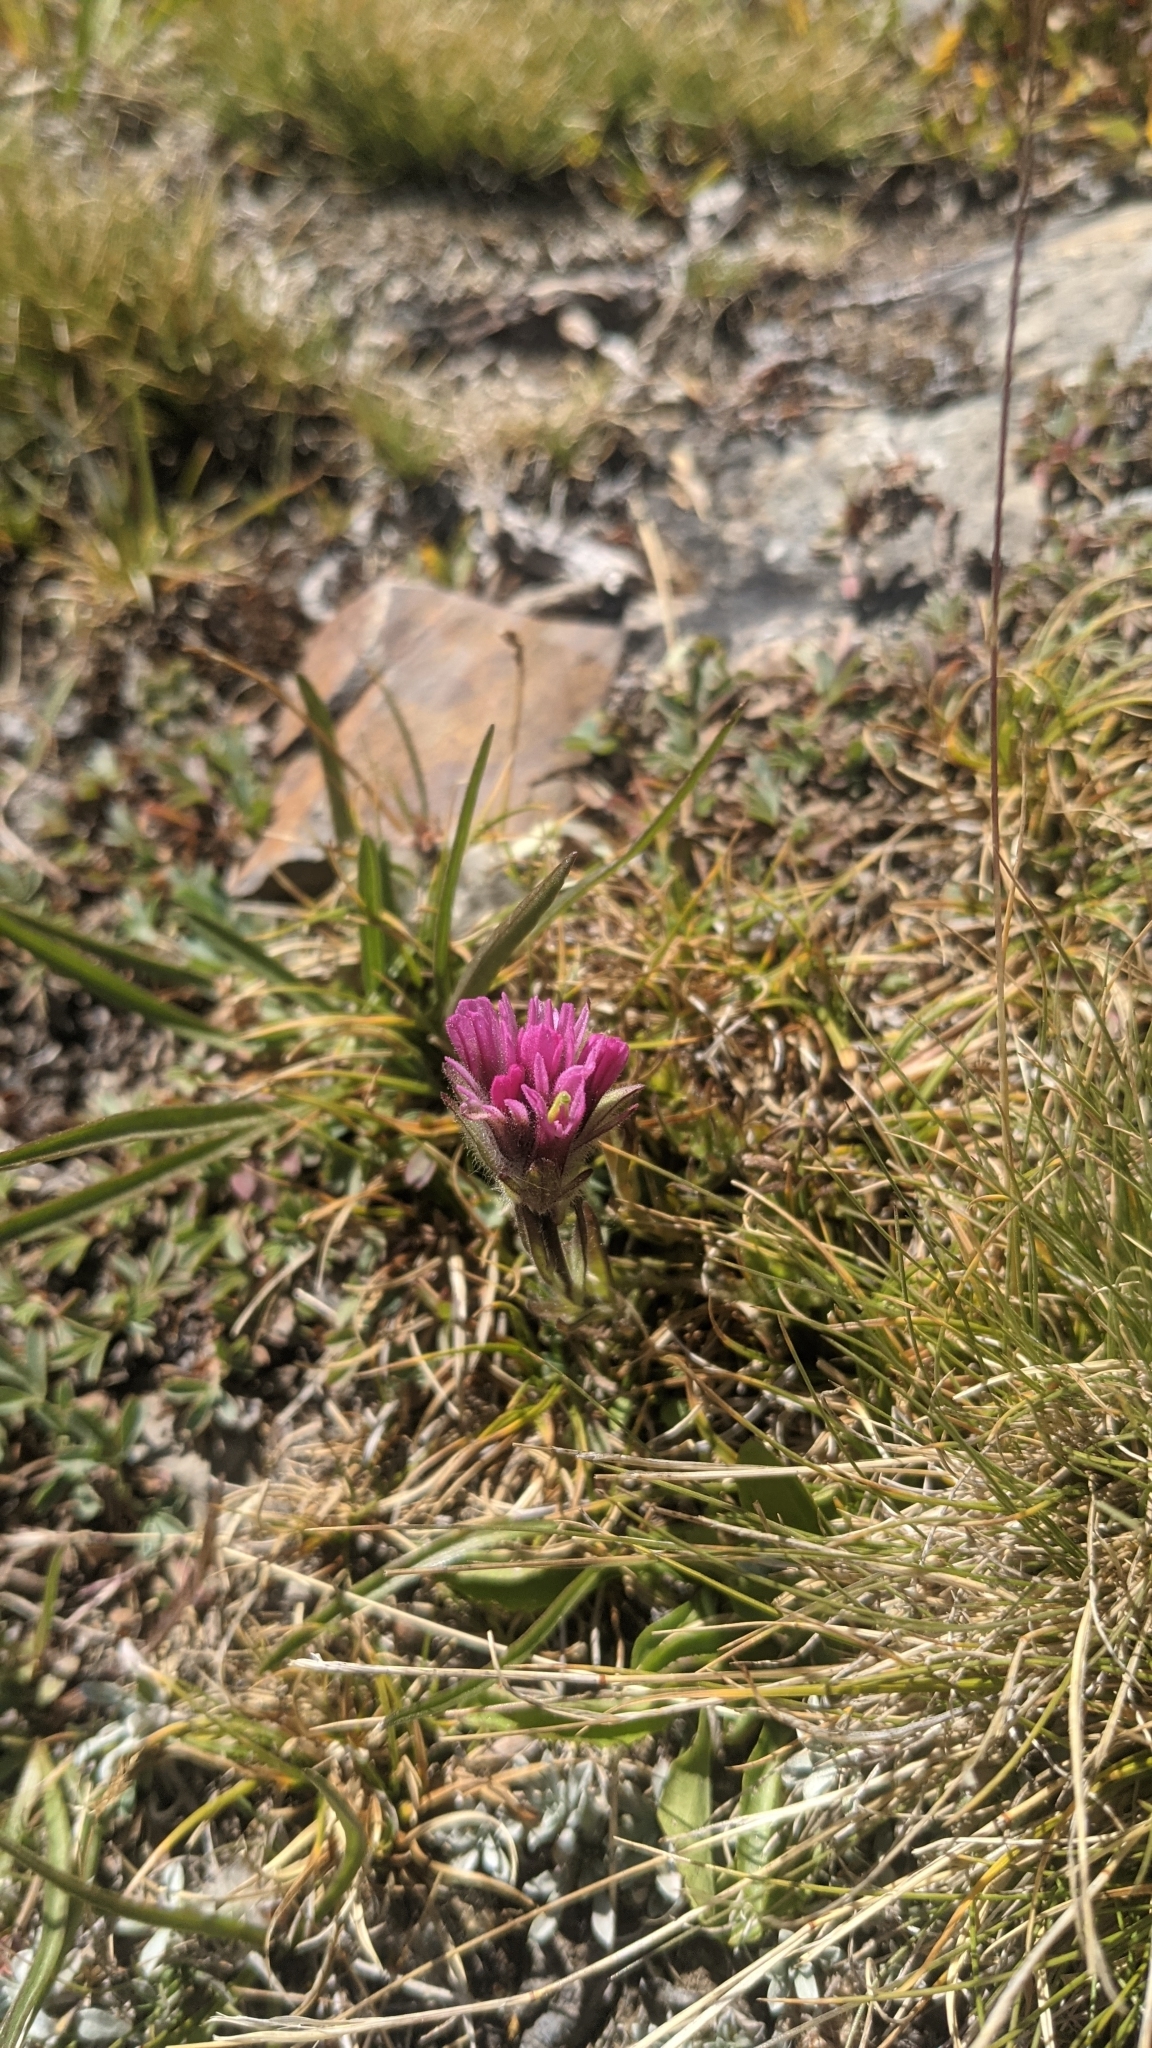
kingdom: Plantae
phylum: Tracheophyta
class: Magnoliopsida
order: Lamiales
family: Orobanchaceae
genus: Castilleja
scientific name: Castilleja lemmonii
